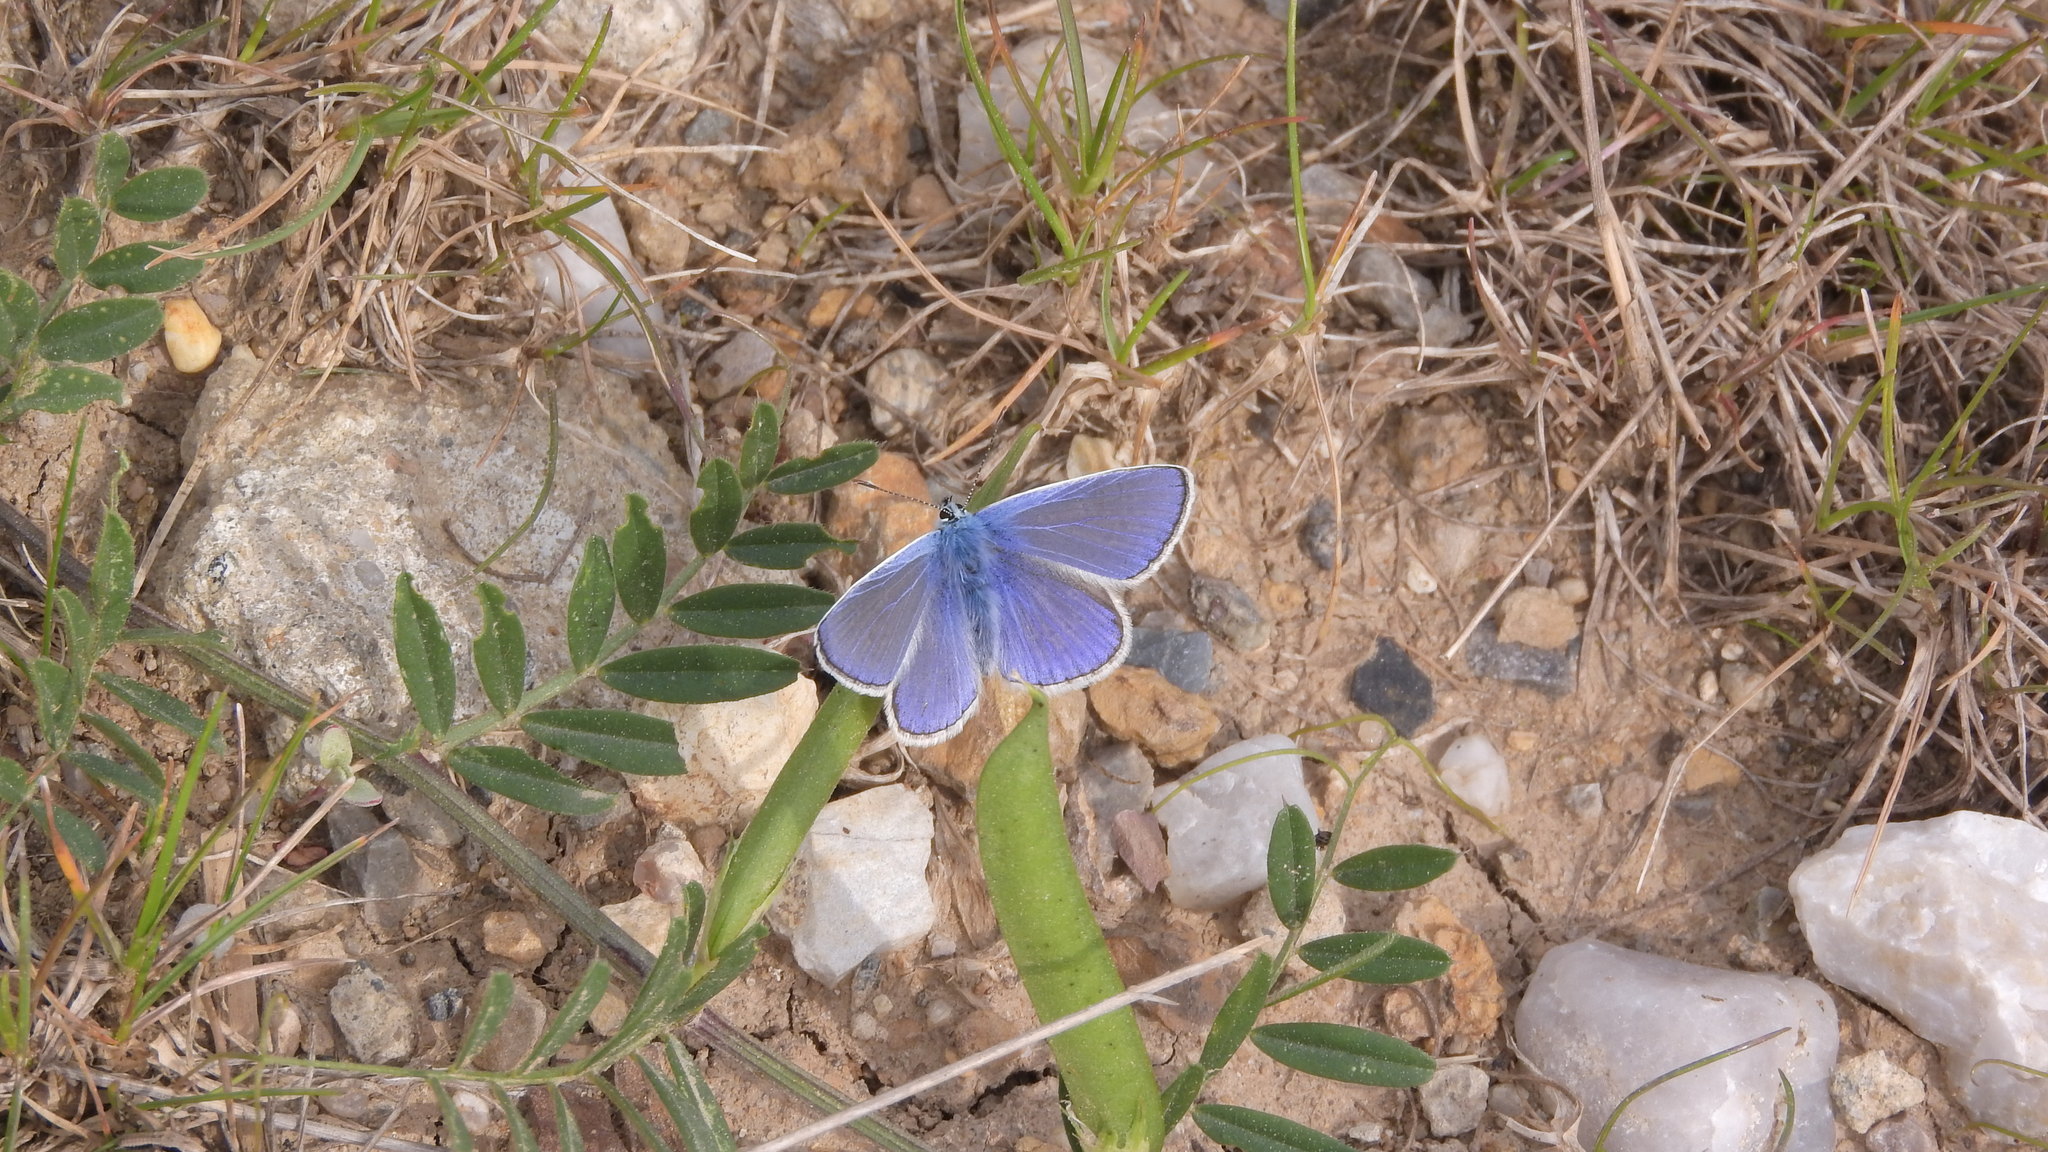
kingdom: Animalia
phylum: Arthropoda
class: Insecta
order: Lepidoptera
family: Lycaenidae
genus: Polyommatus
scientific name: Polyommatus icarus
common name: Common blue
